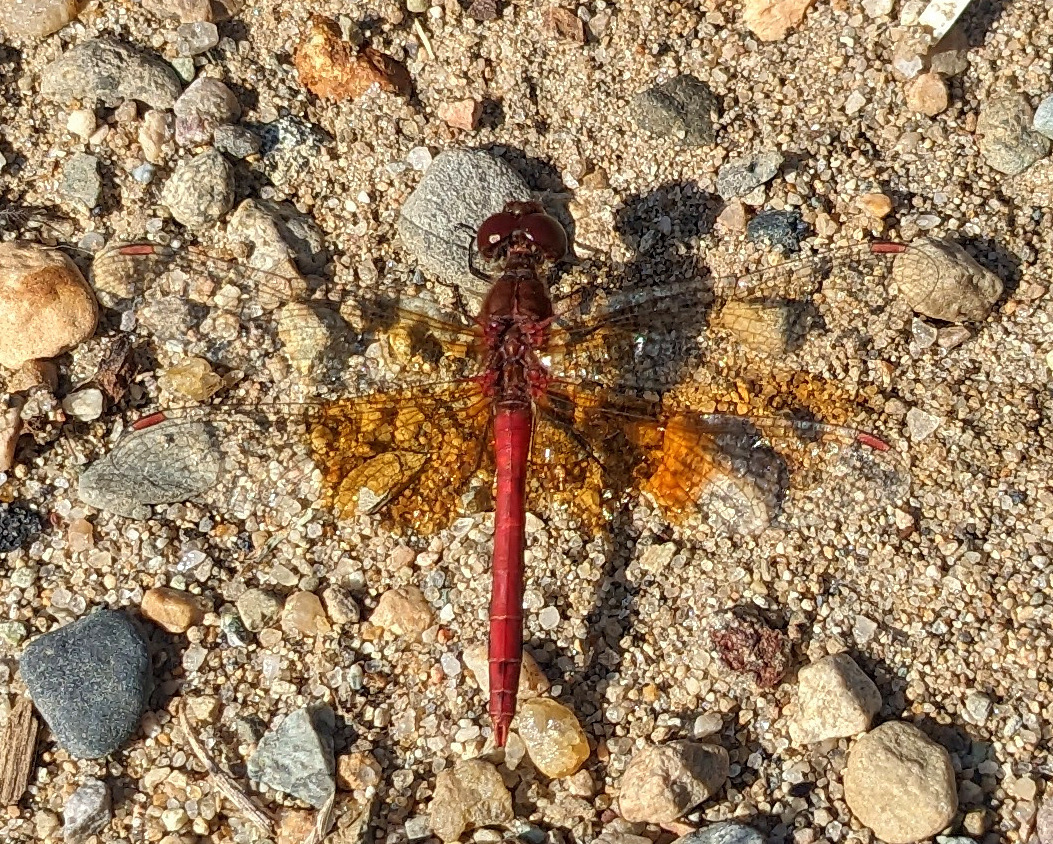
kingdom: Animalia
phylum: Arthropoda
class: Insecta
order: Odonata
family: Libellulidae
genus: Sympetrum
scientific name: Sympetrum semicinctum
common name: Band-winged meadowhawk
